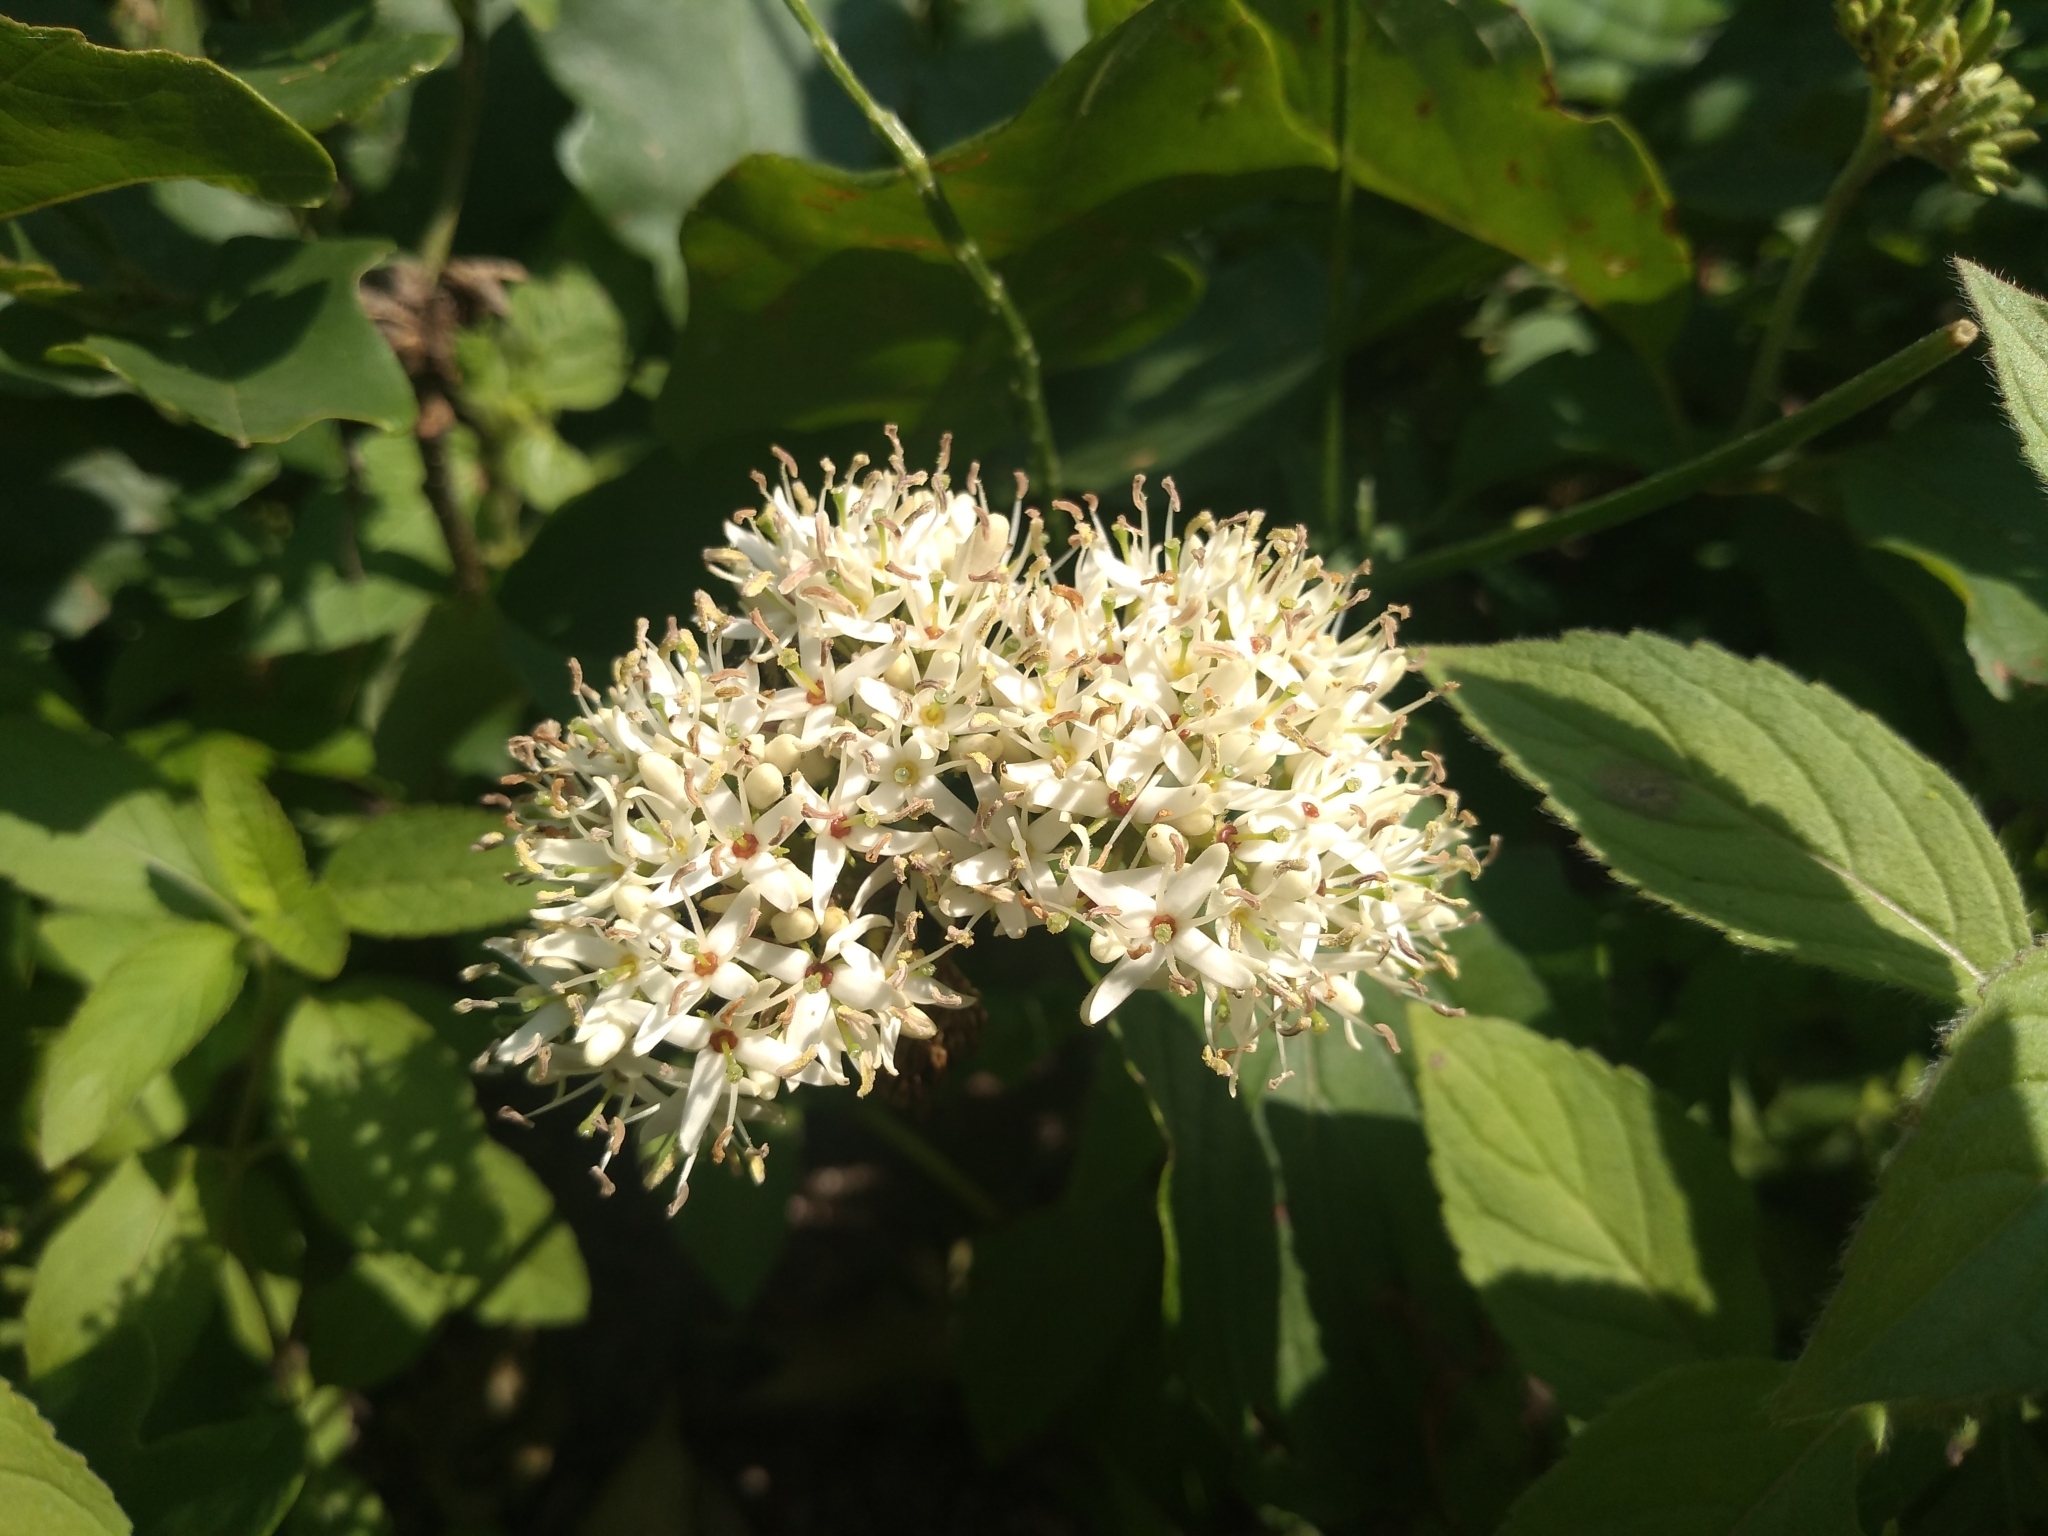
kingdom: Plantae
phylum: Tracheophyta
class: Magnoliopsida
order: Cornales
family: Cornaceae
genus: Cornus
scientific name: Cornus amomum
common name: Silky dogwood
